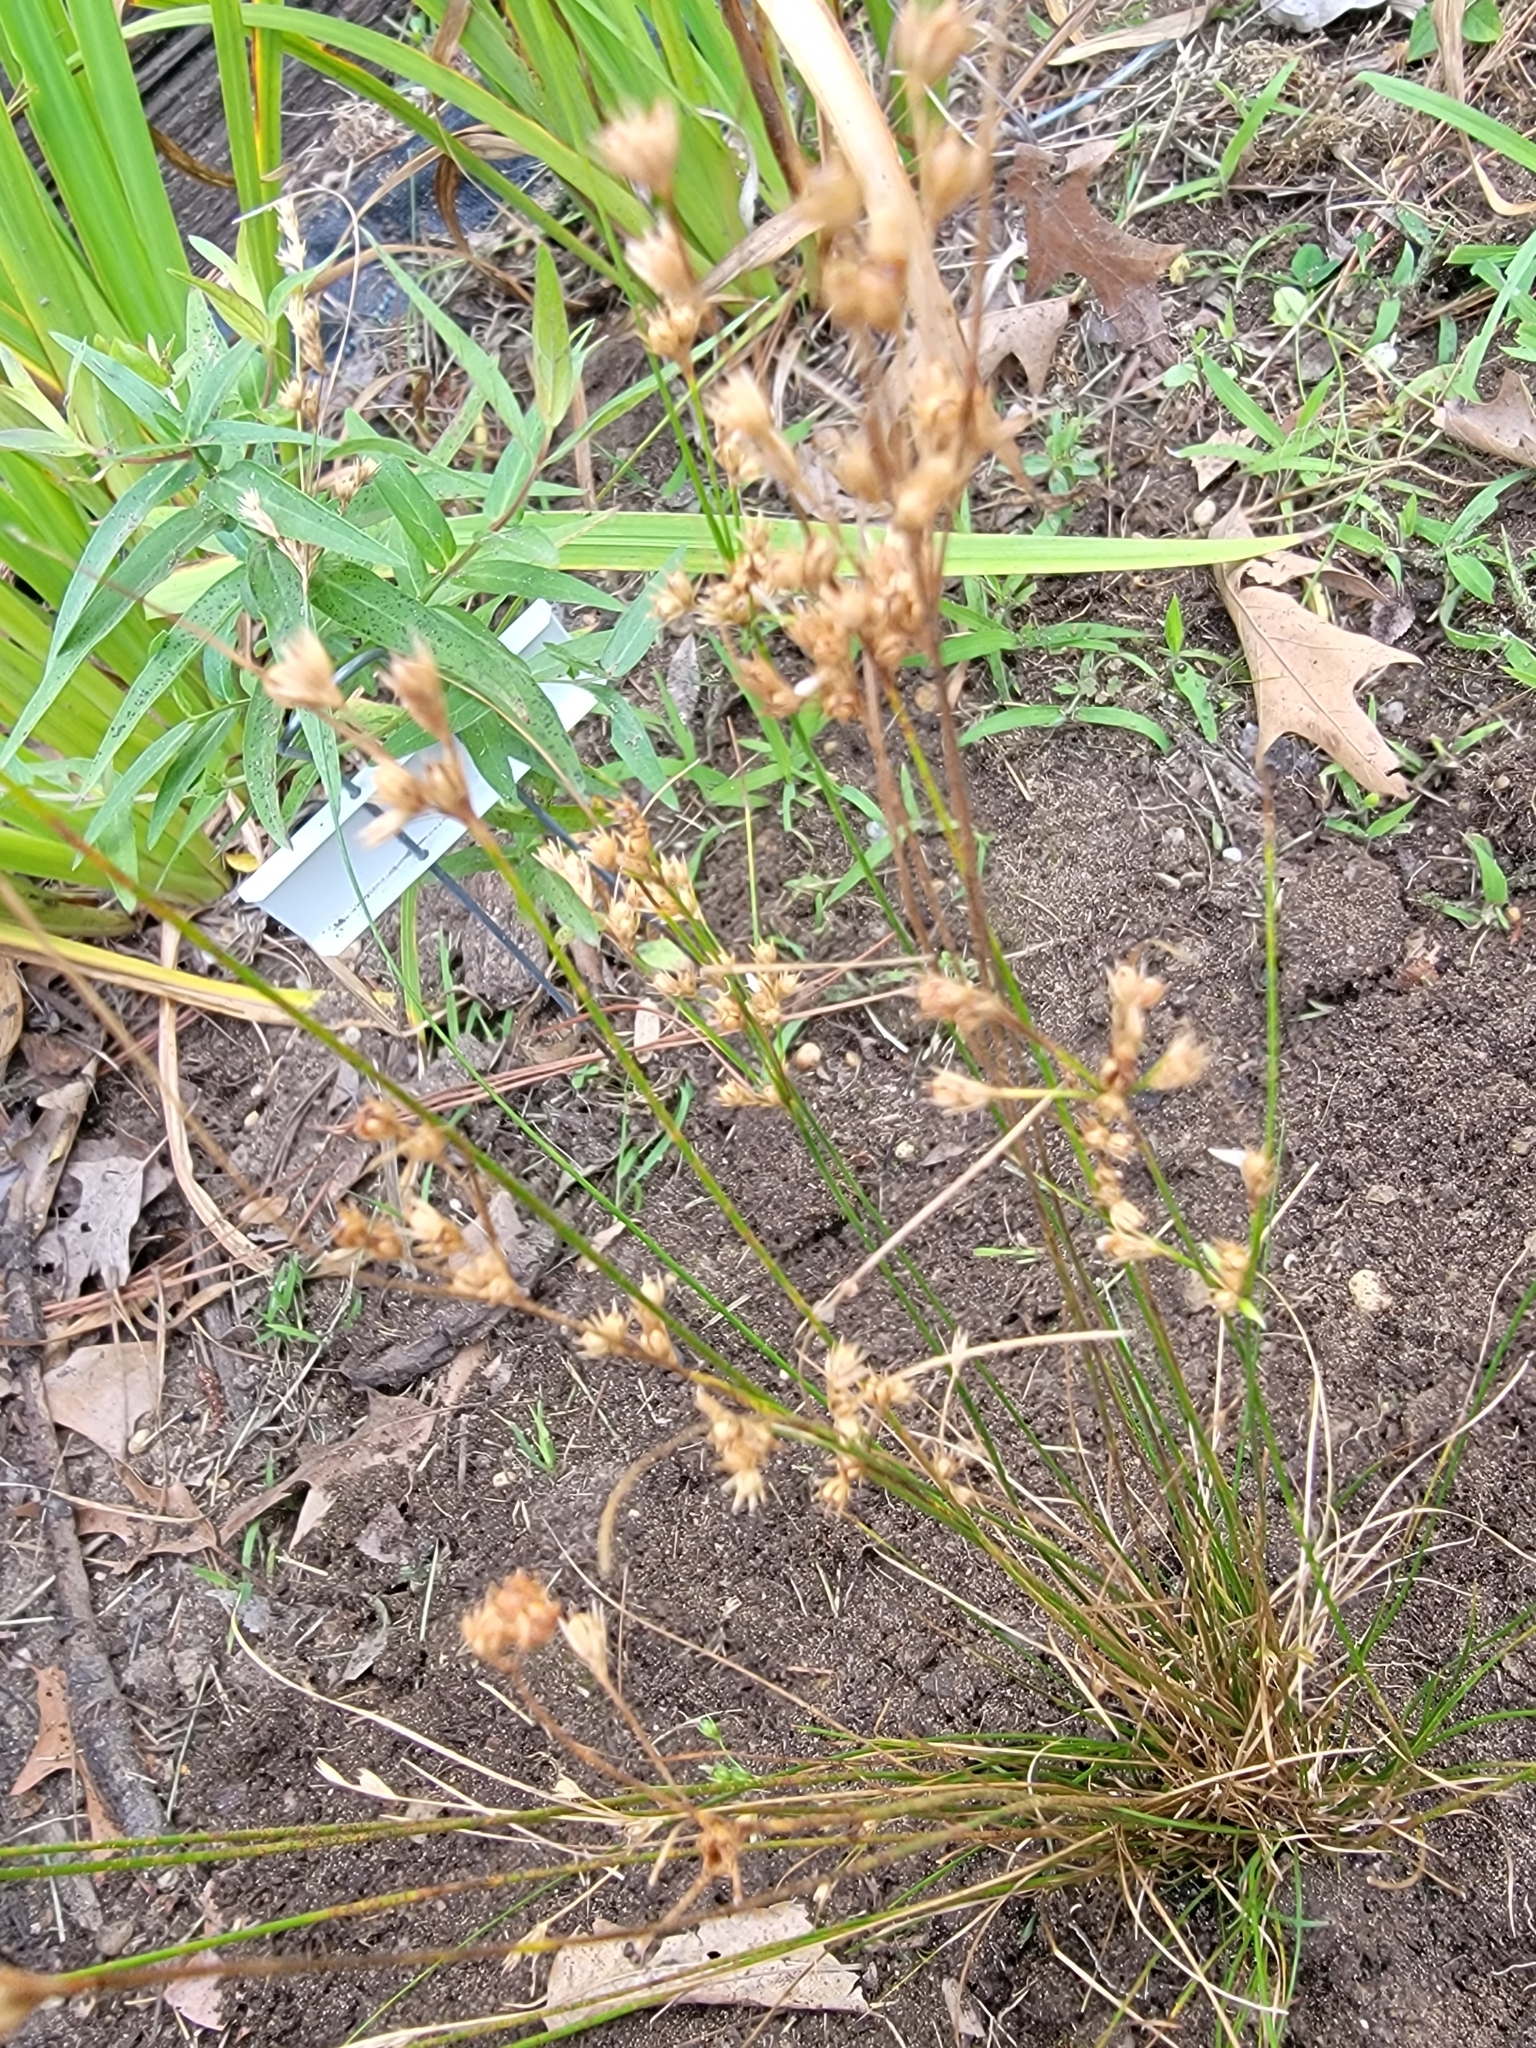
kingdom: Plantae
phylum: Tracheophyta
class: Liliopsida
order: Poales
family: Juncaceae
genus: Juncus
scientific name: Juncus tenuis
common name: Slender rush
